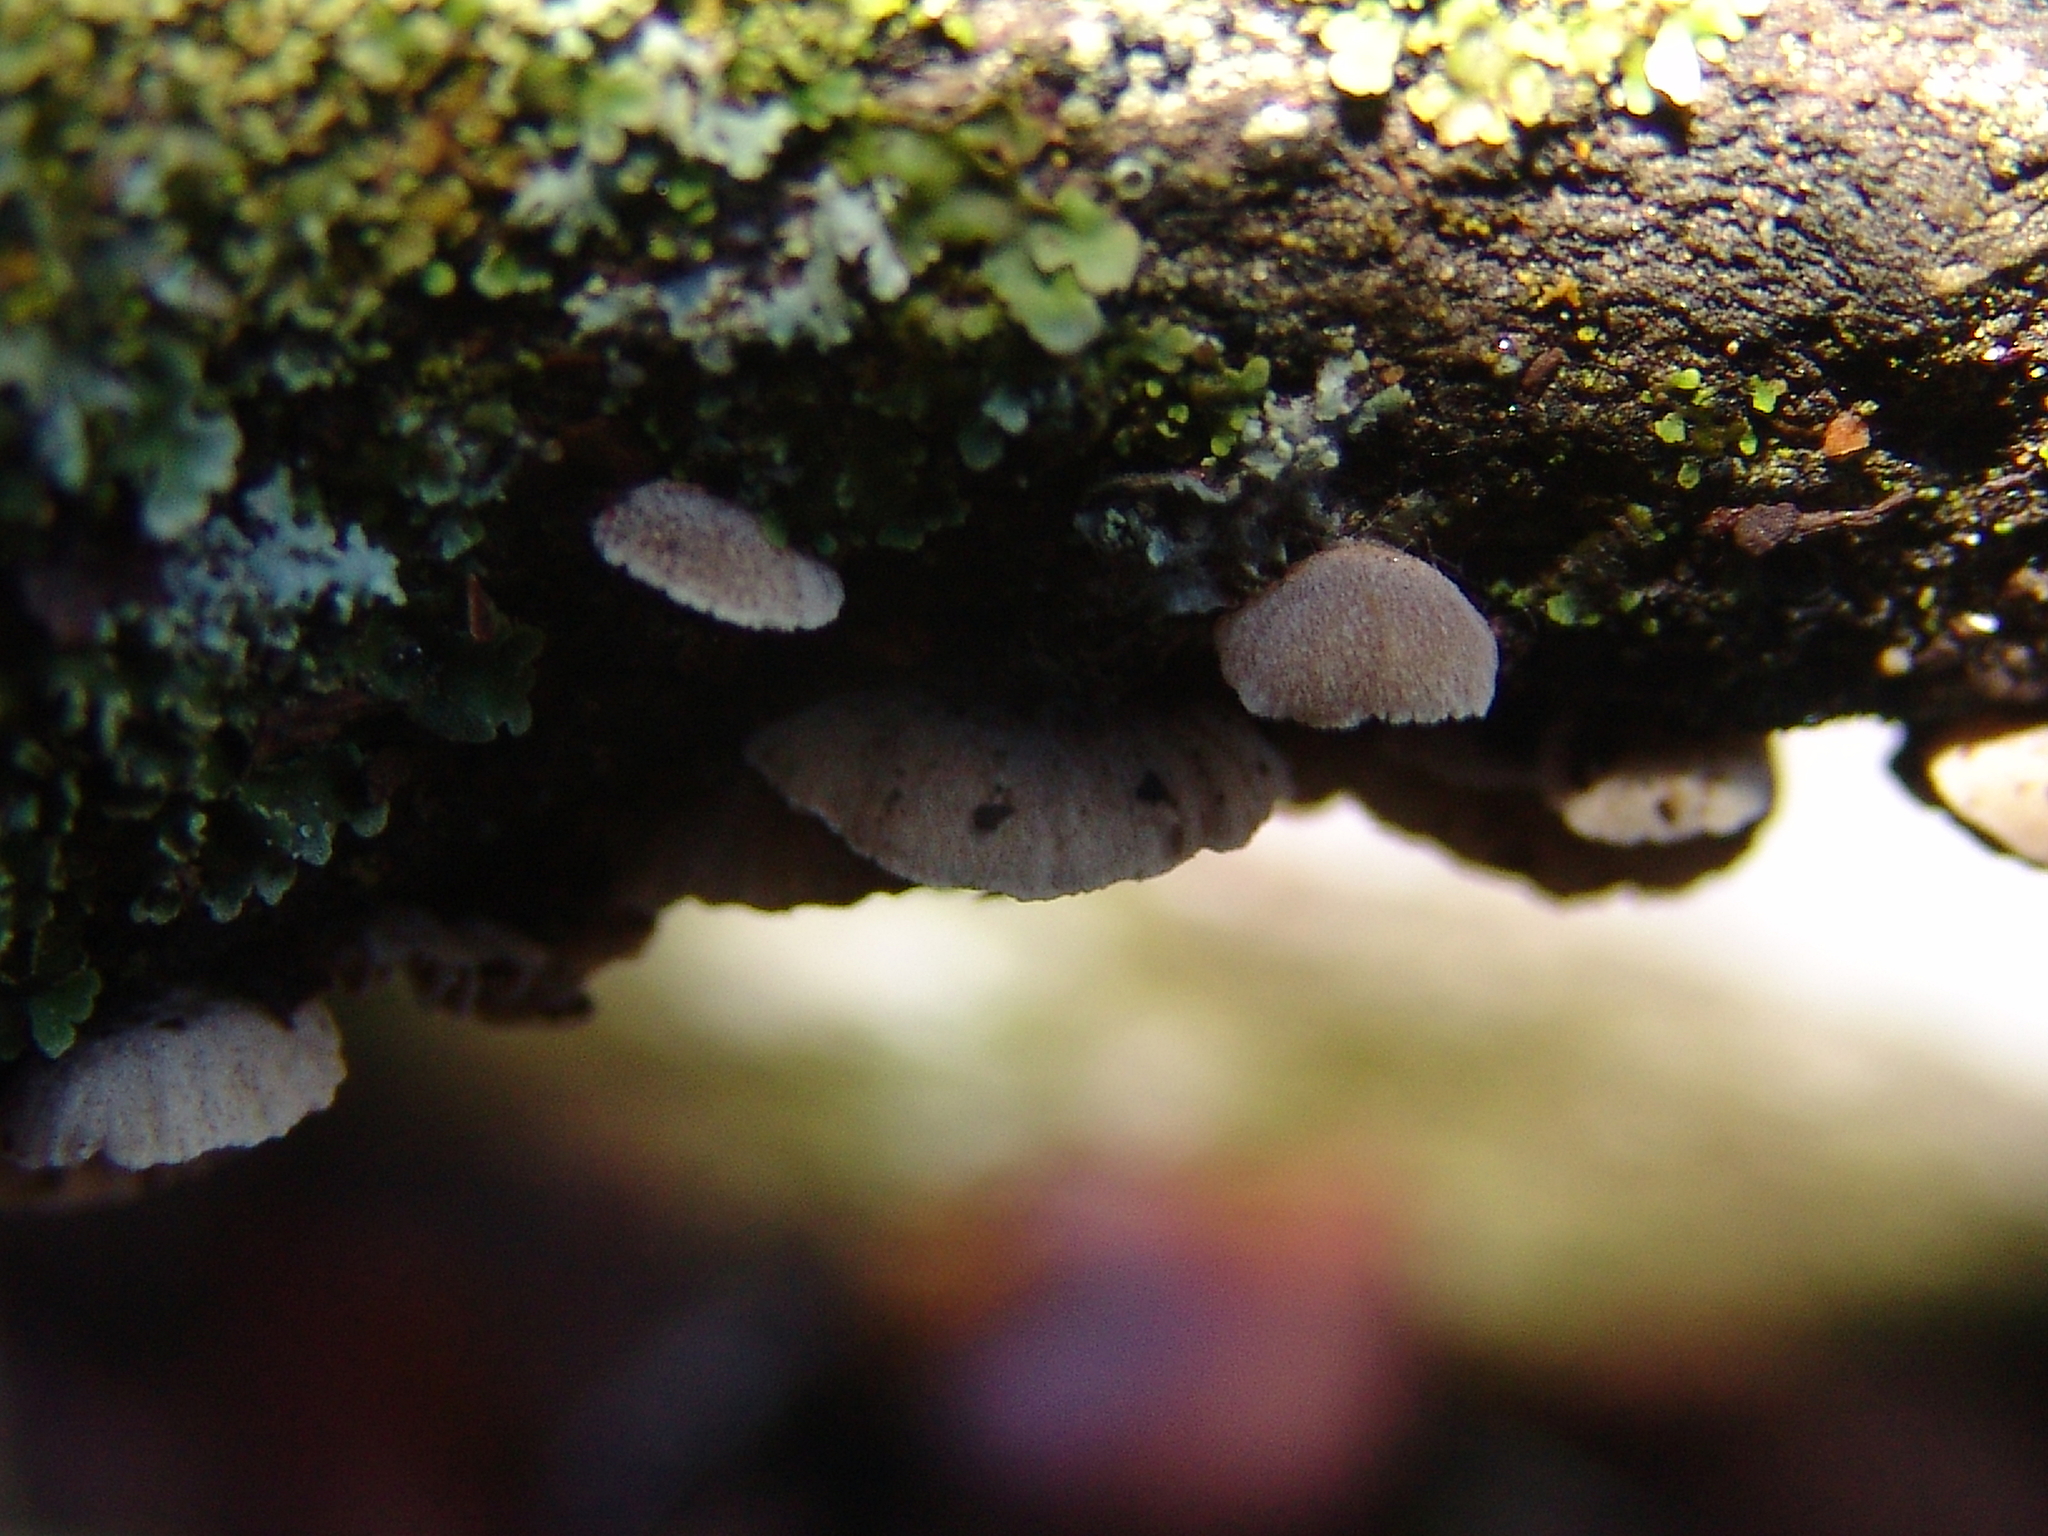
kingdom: Fungi
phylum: Basidiomycota
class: Agaricomycetes
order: Agaricales
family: Schizophyllaceae
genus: Schizophyllum
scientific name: Schizophyllum commune
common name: Common porecrust
